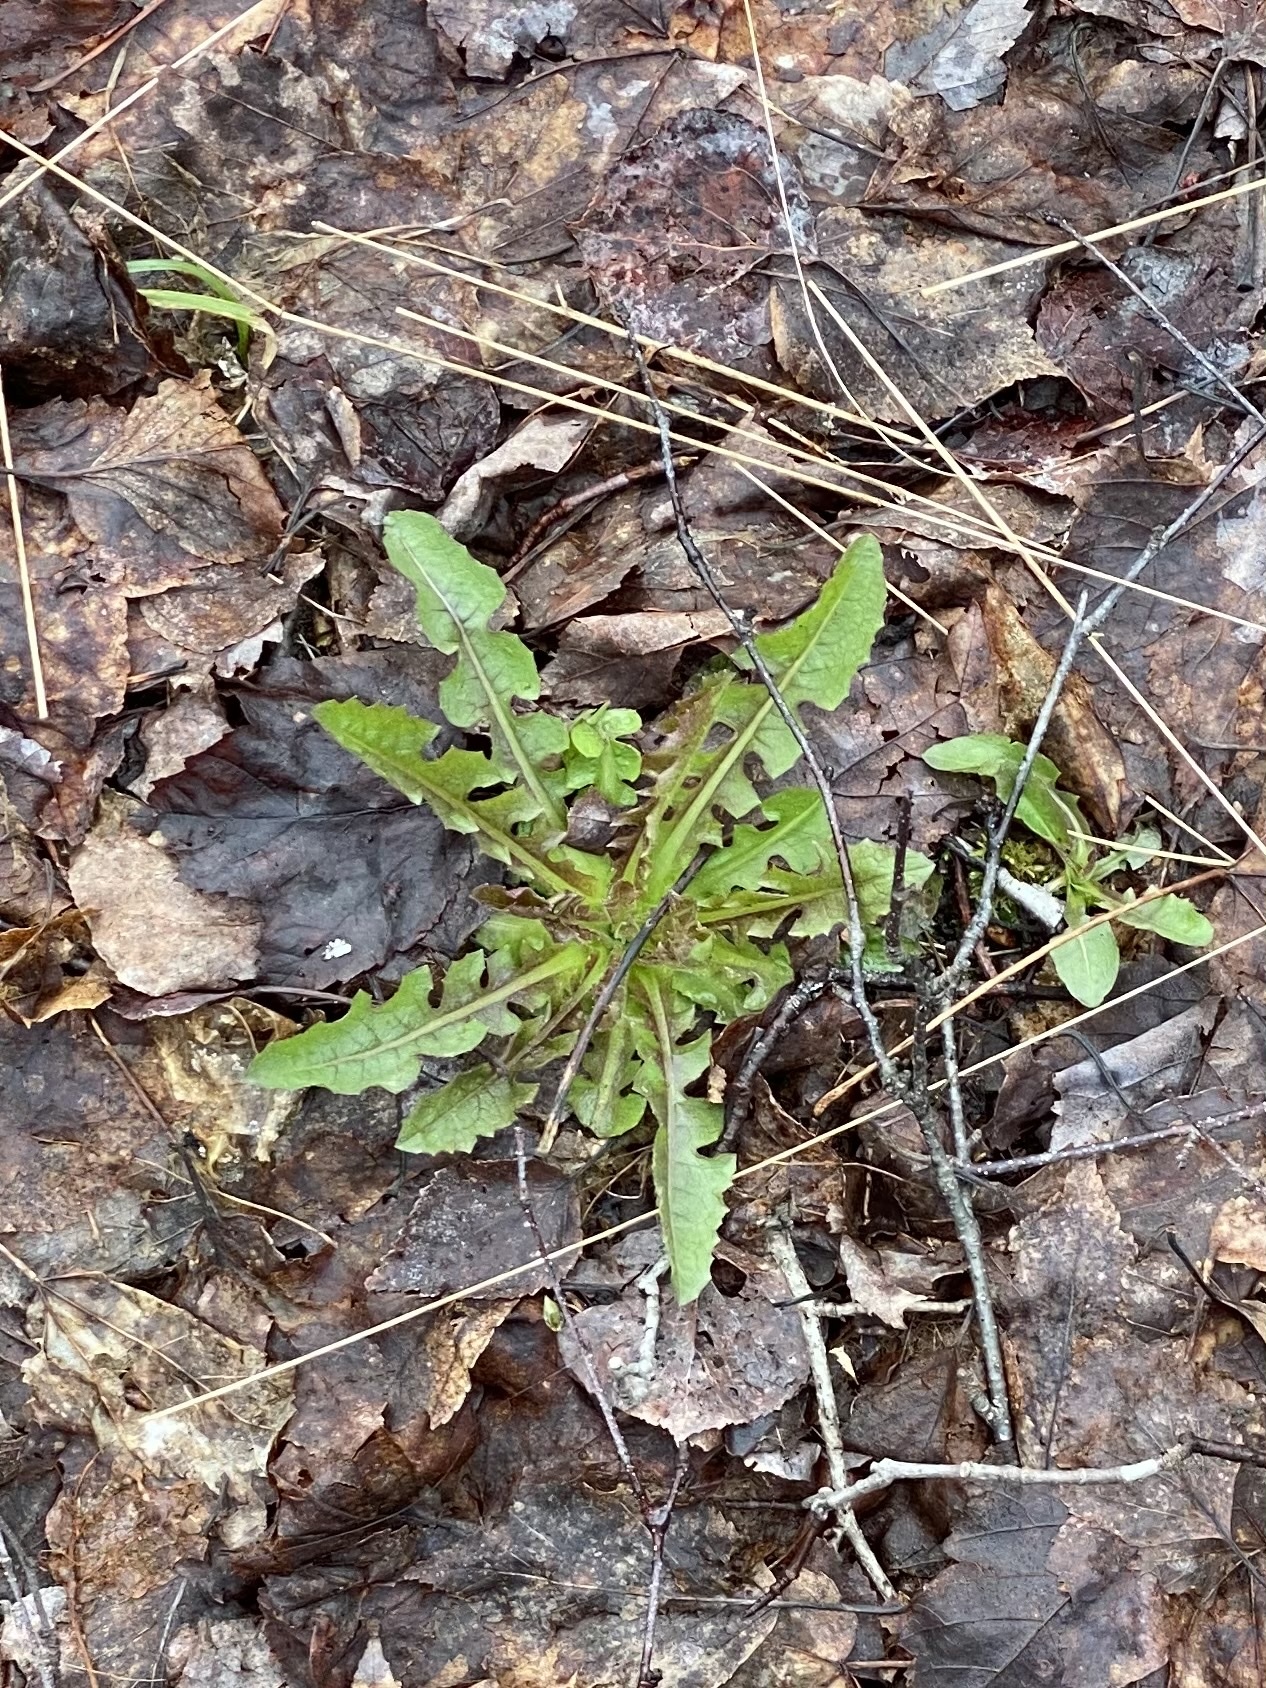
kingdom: Plantae
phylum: Tracheophyta
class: Magnoliopsida
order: Asterales
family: Asteraceae
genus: Taraxacum
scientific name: Taraxacum officinale
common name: Common dandelion
